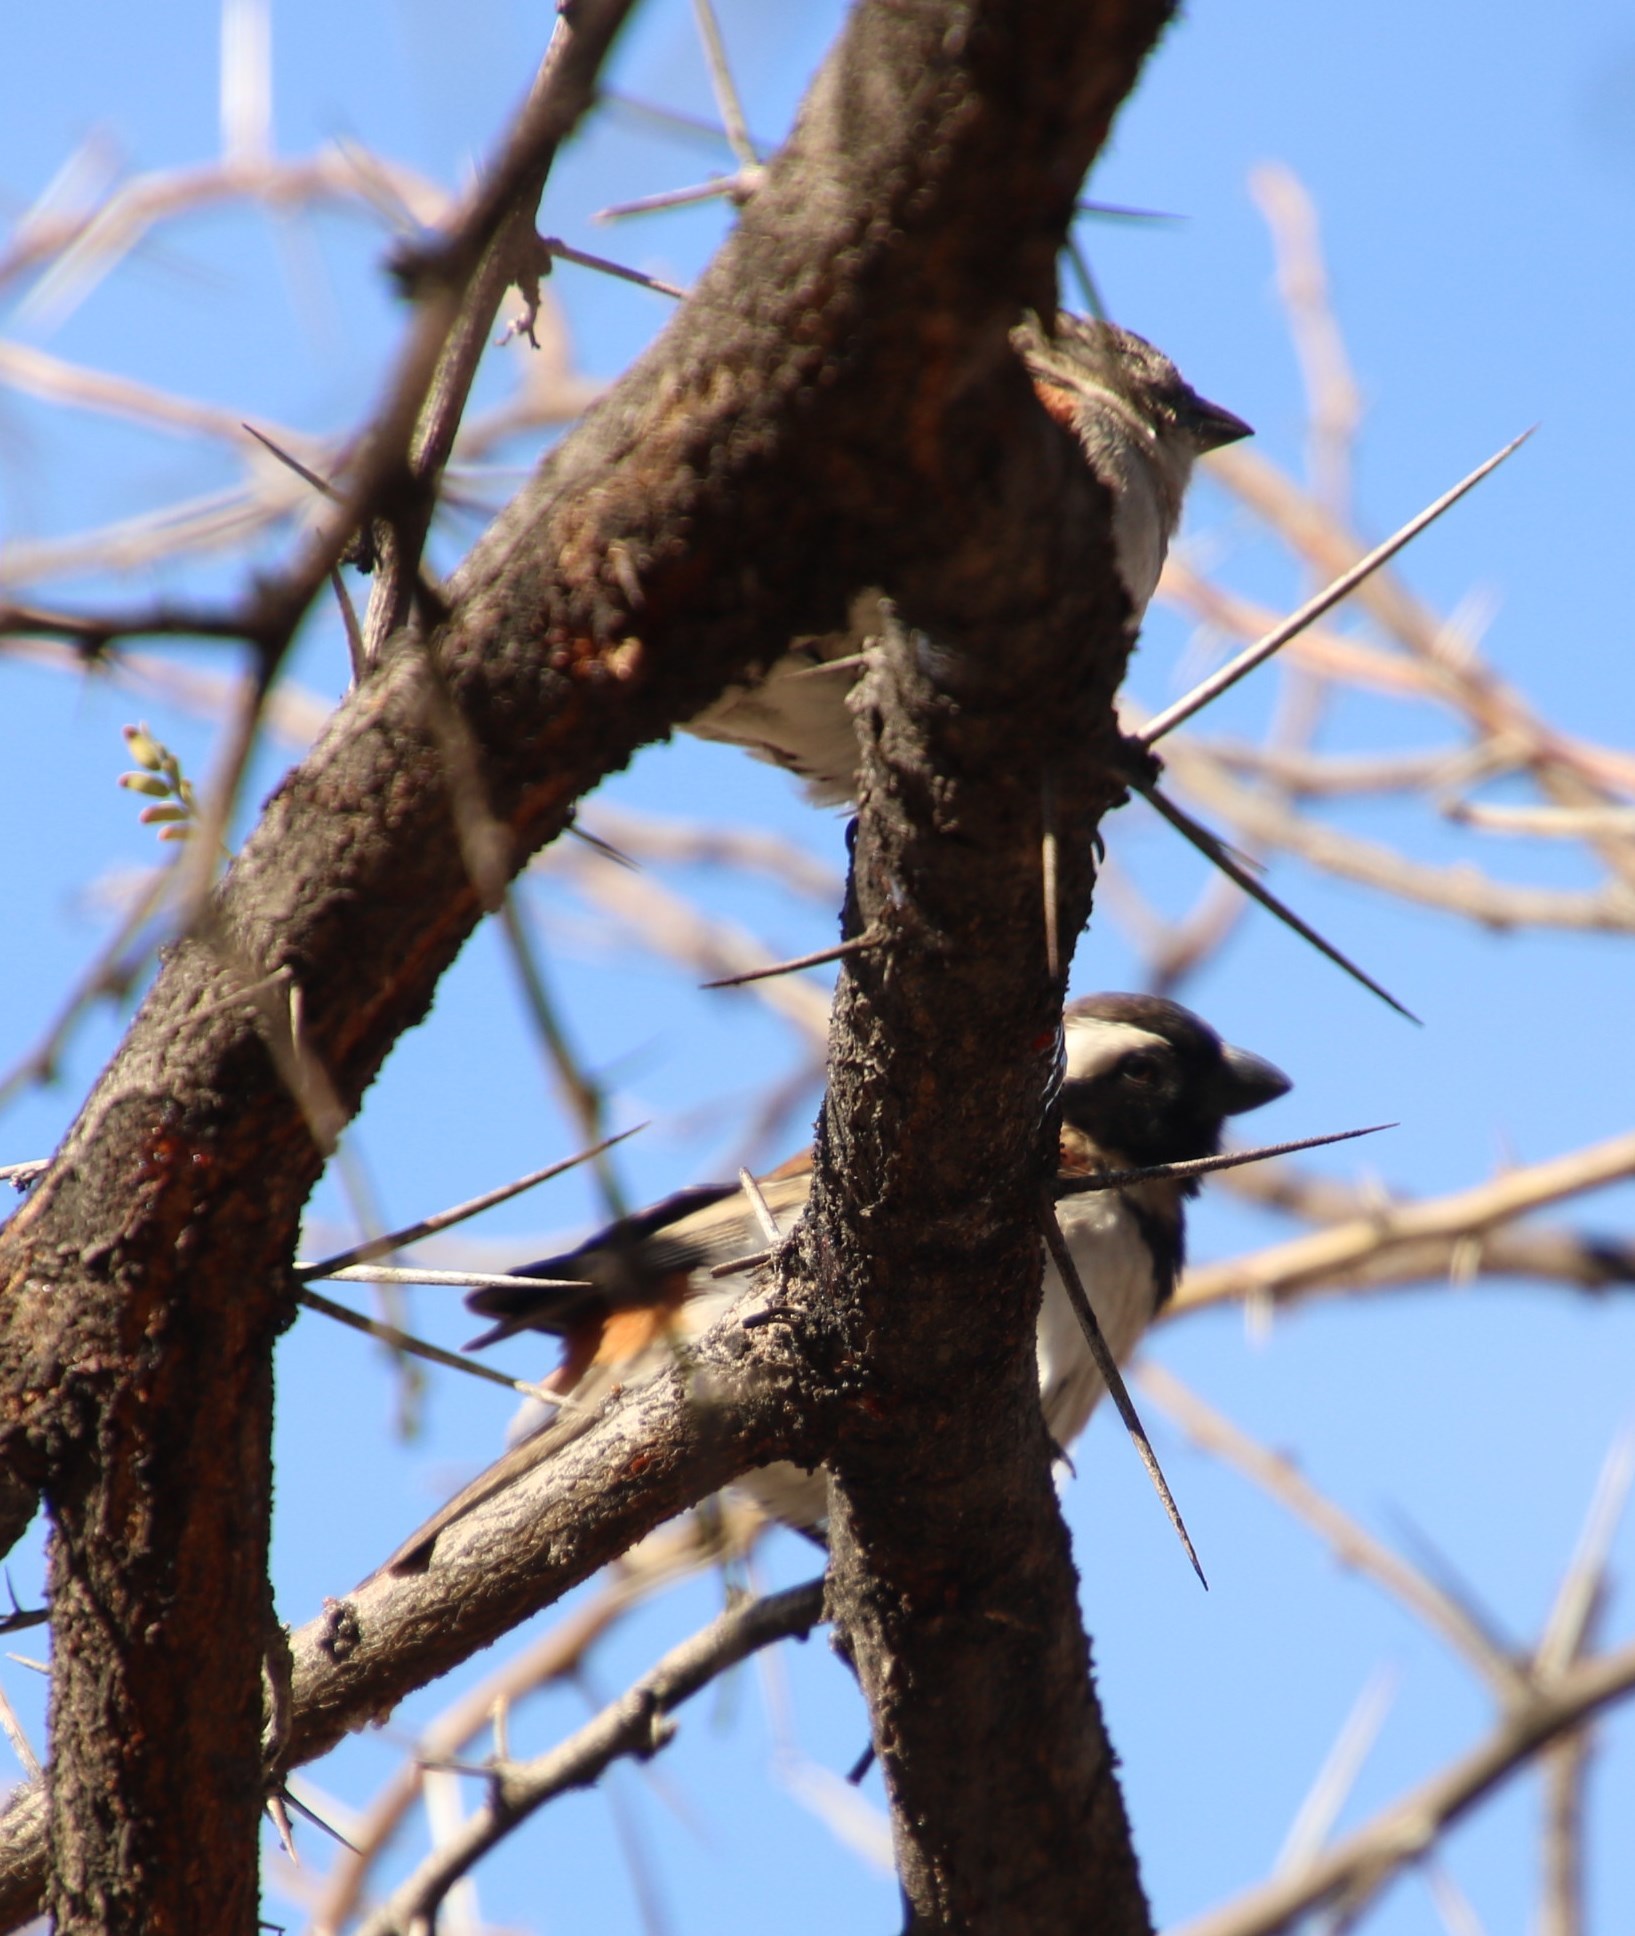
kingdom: Animalia
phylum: Chordata
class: Aves
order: Passeriformes
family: Passeridae
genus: Passer
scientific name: Passer melanurus
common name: Cape sparrow
